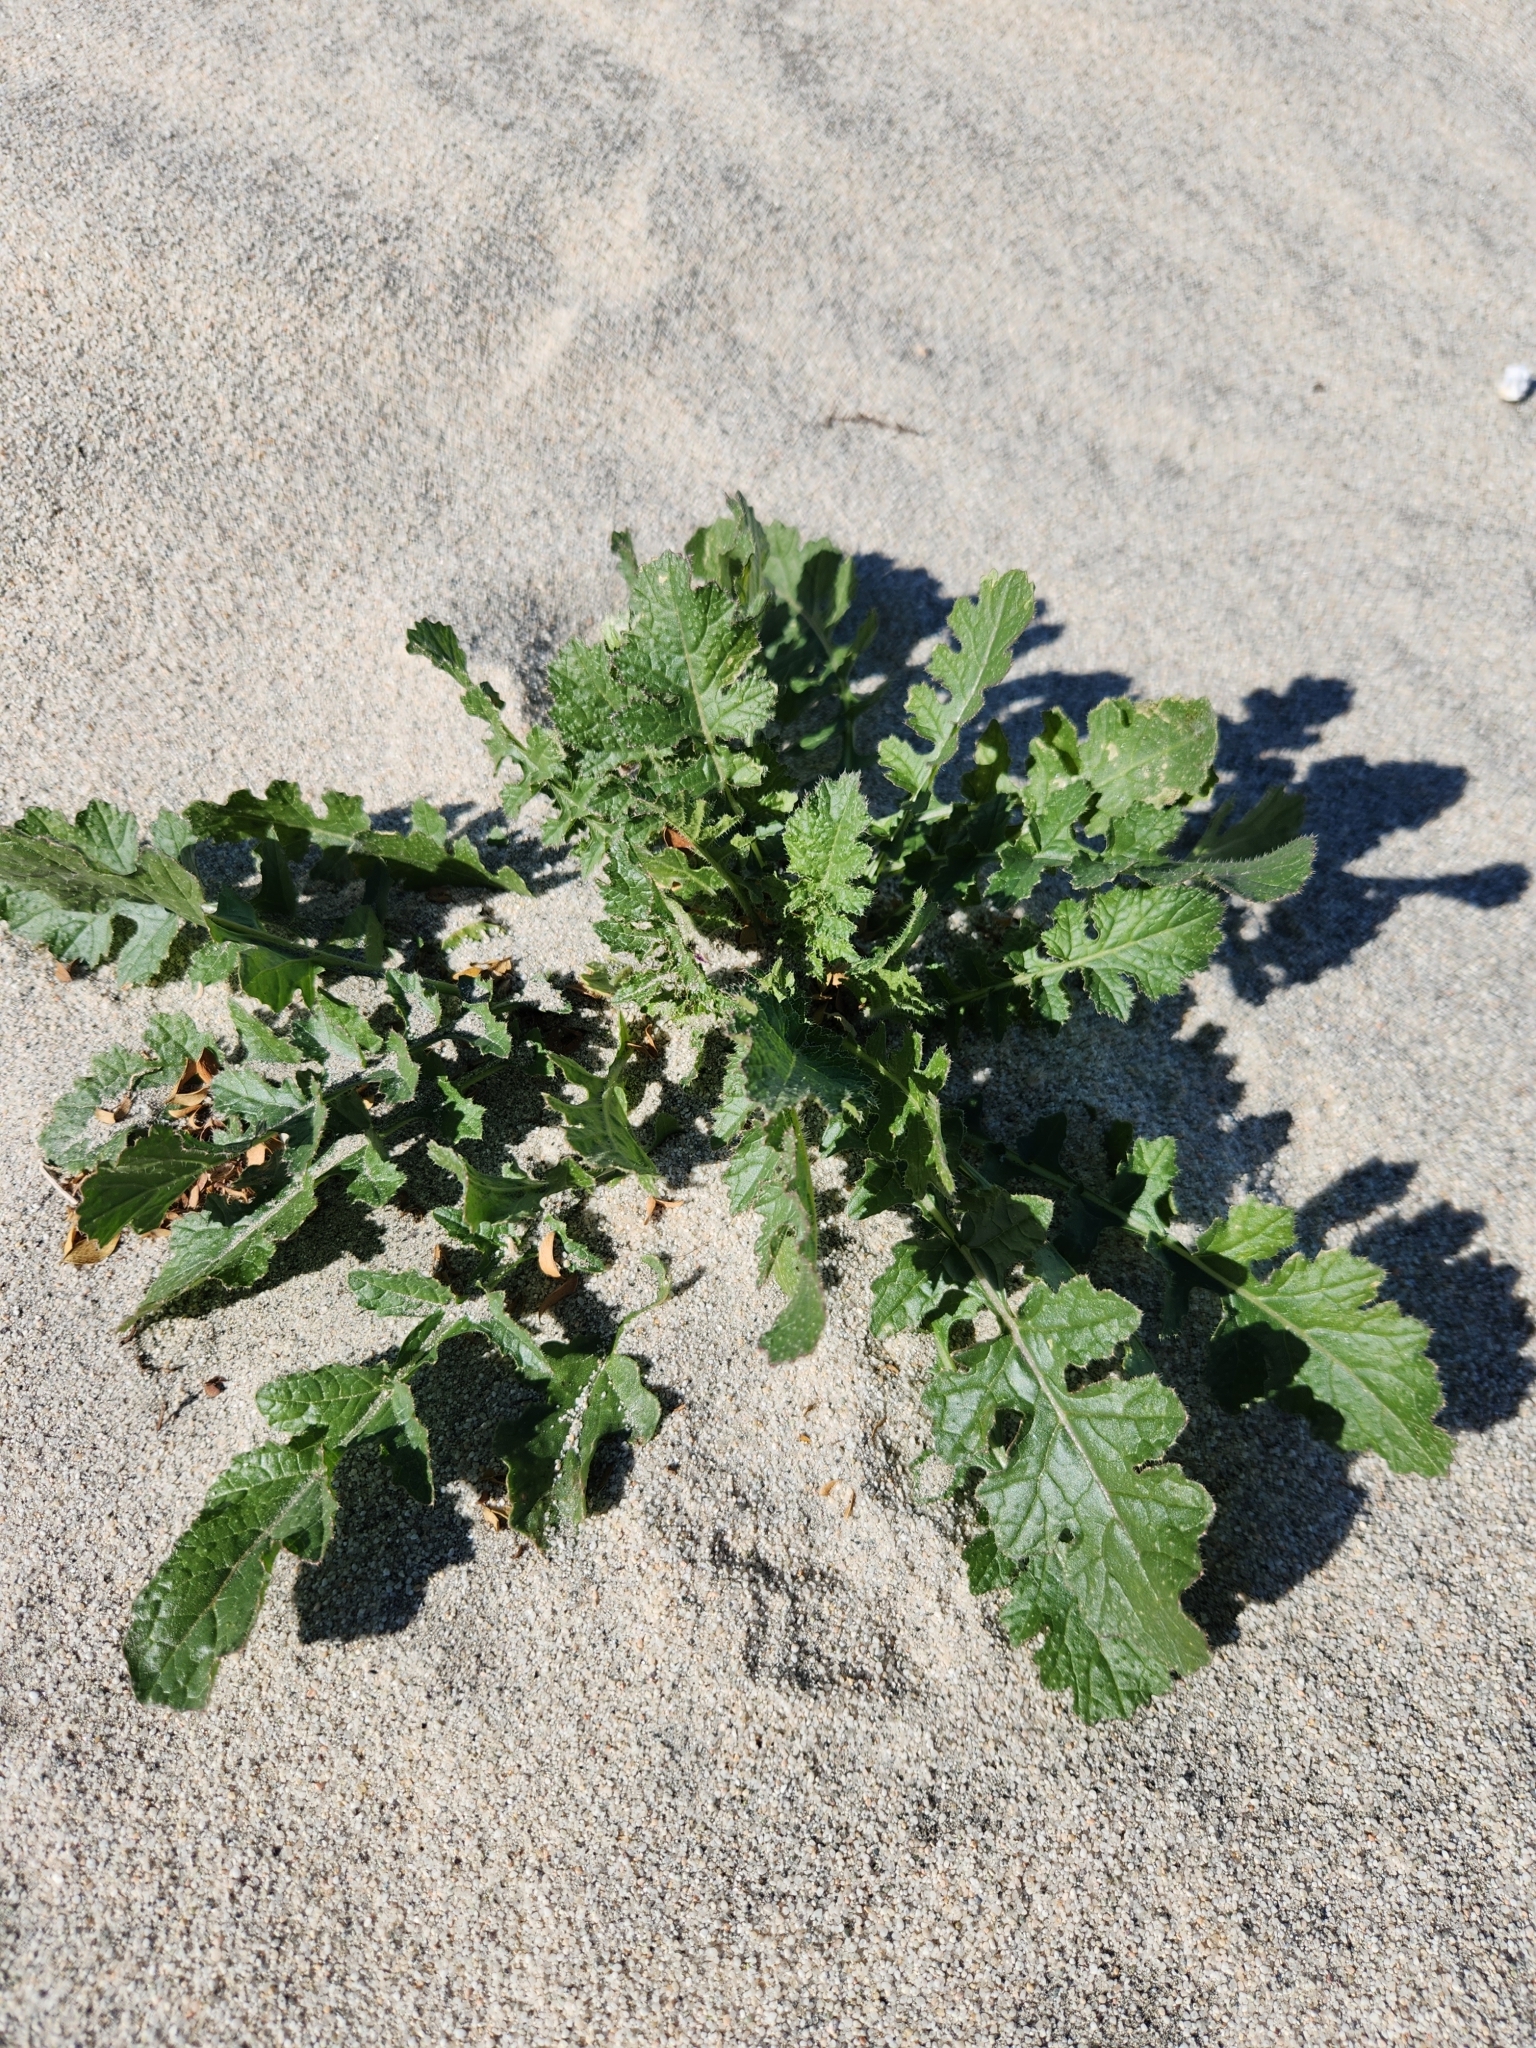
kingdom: Plantae
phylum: Tracheophyta
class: Magnoliopsida
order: Brassicales
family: Brassicaceae
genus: Brassica
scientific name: Brassica tournefortii
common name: Pale cabbage
